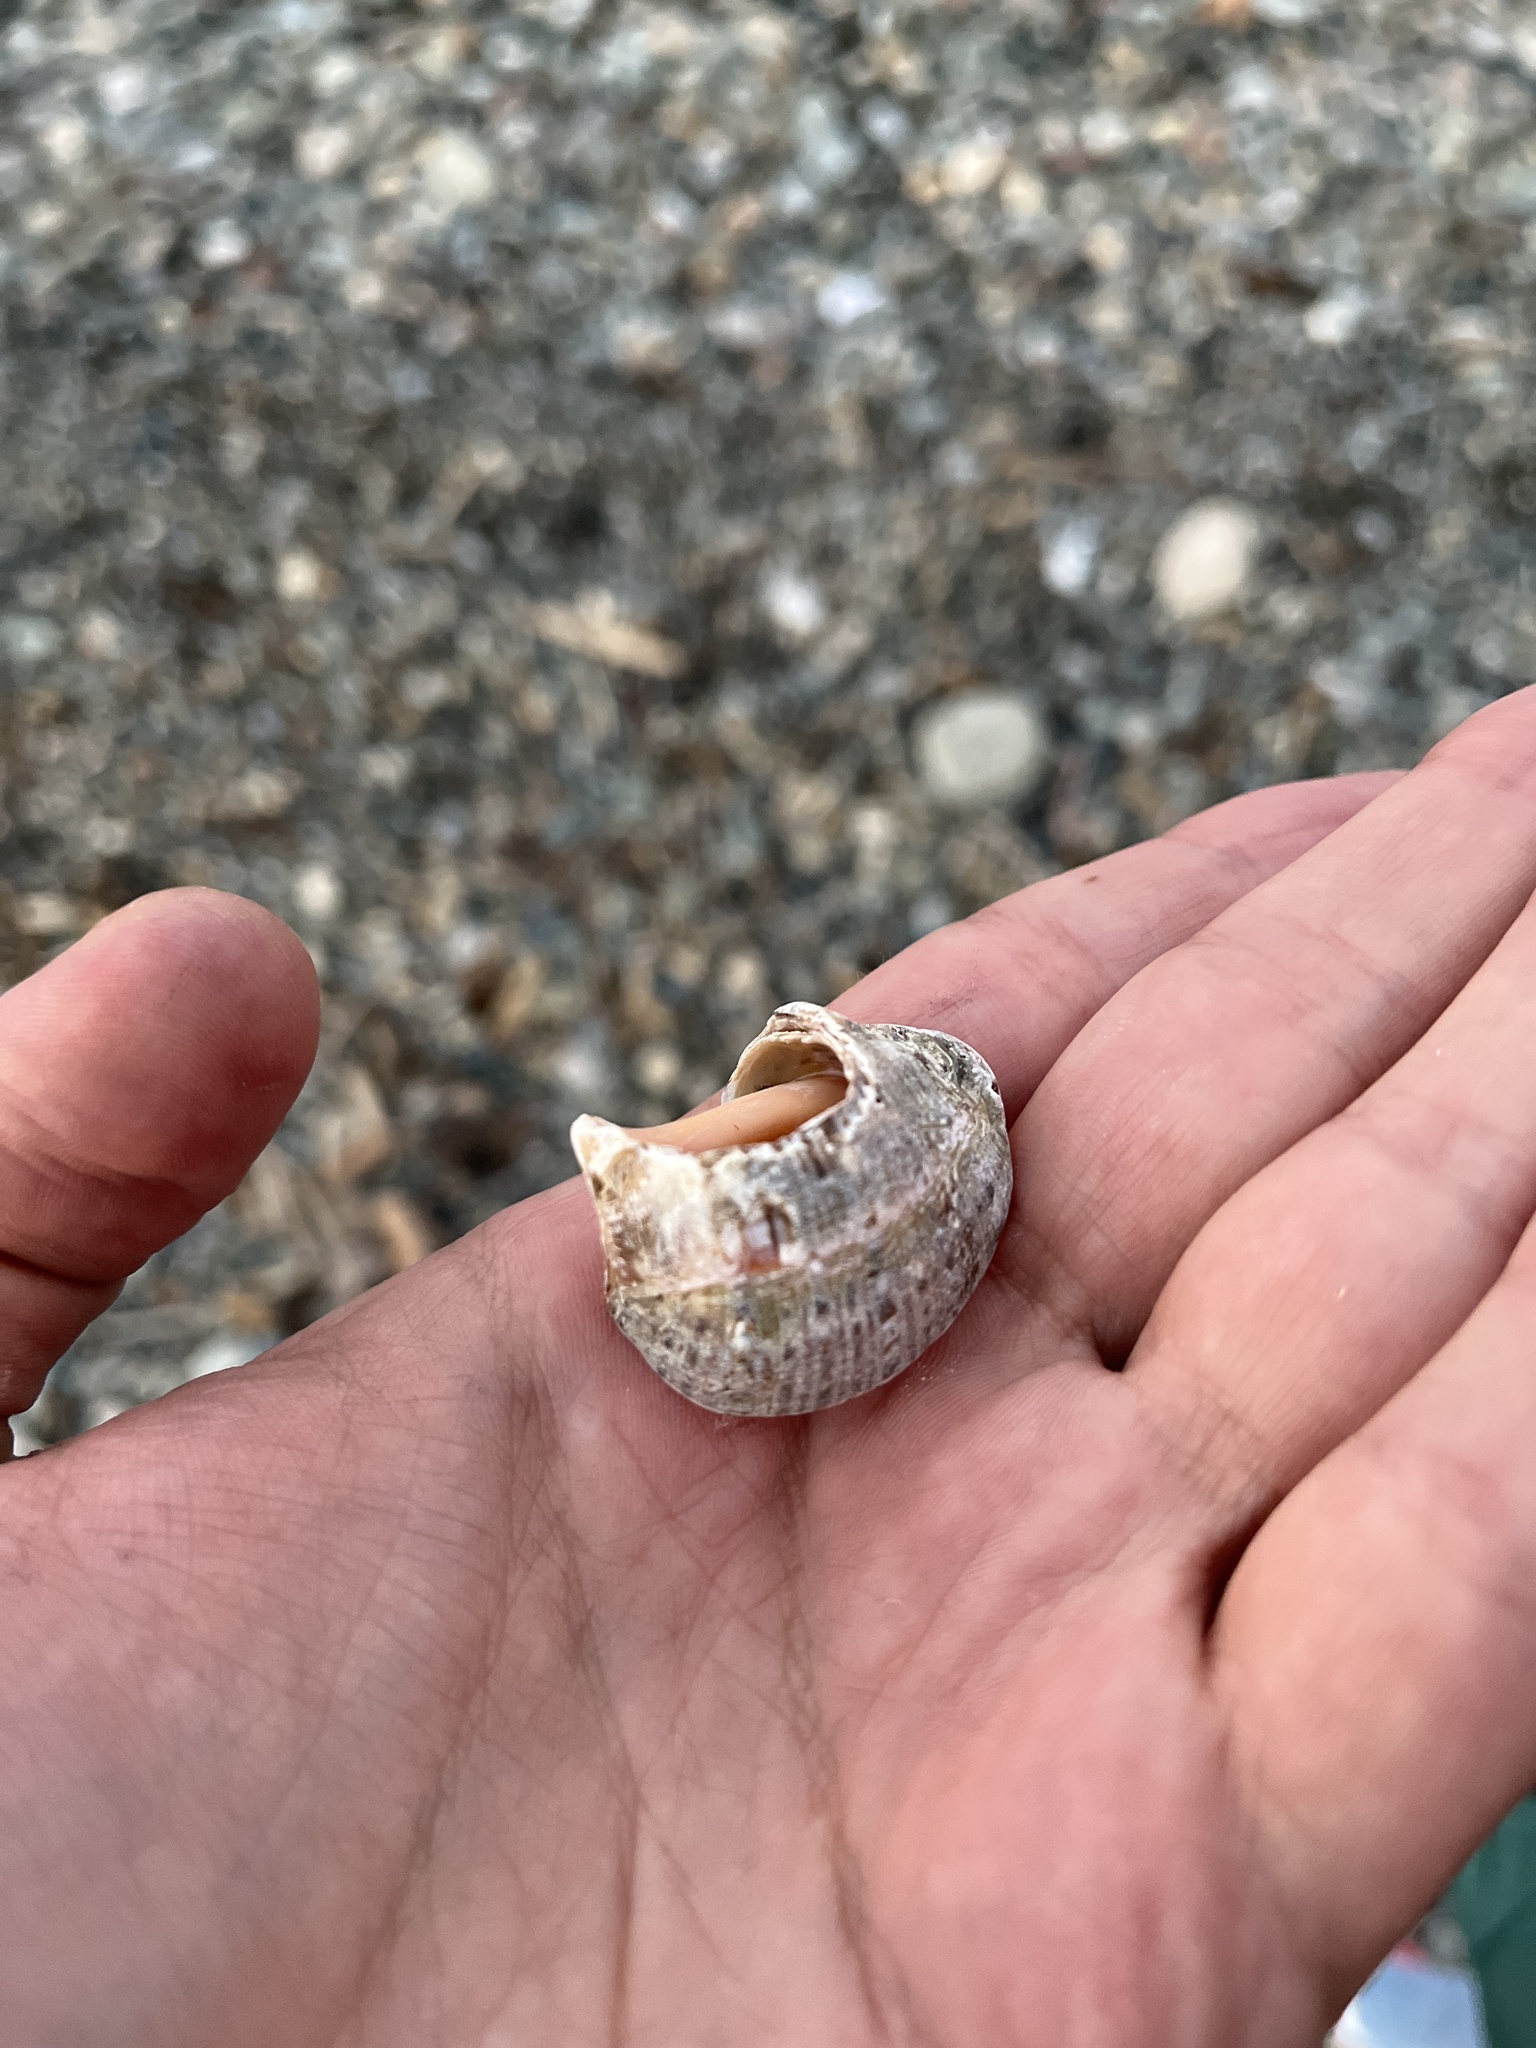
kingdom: Animalia
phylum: Mollusca
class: Gastropoda
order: Neogastropoda
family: Muricidae
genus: Rapana
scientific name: Rapana venosa
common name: Veined rapa whelk
